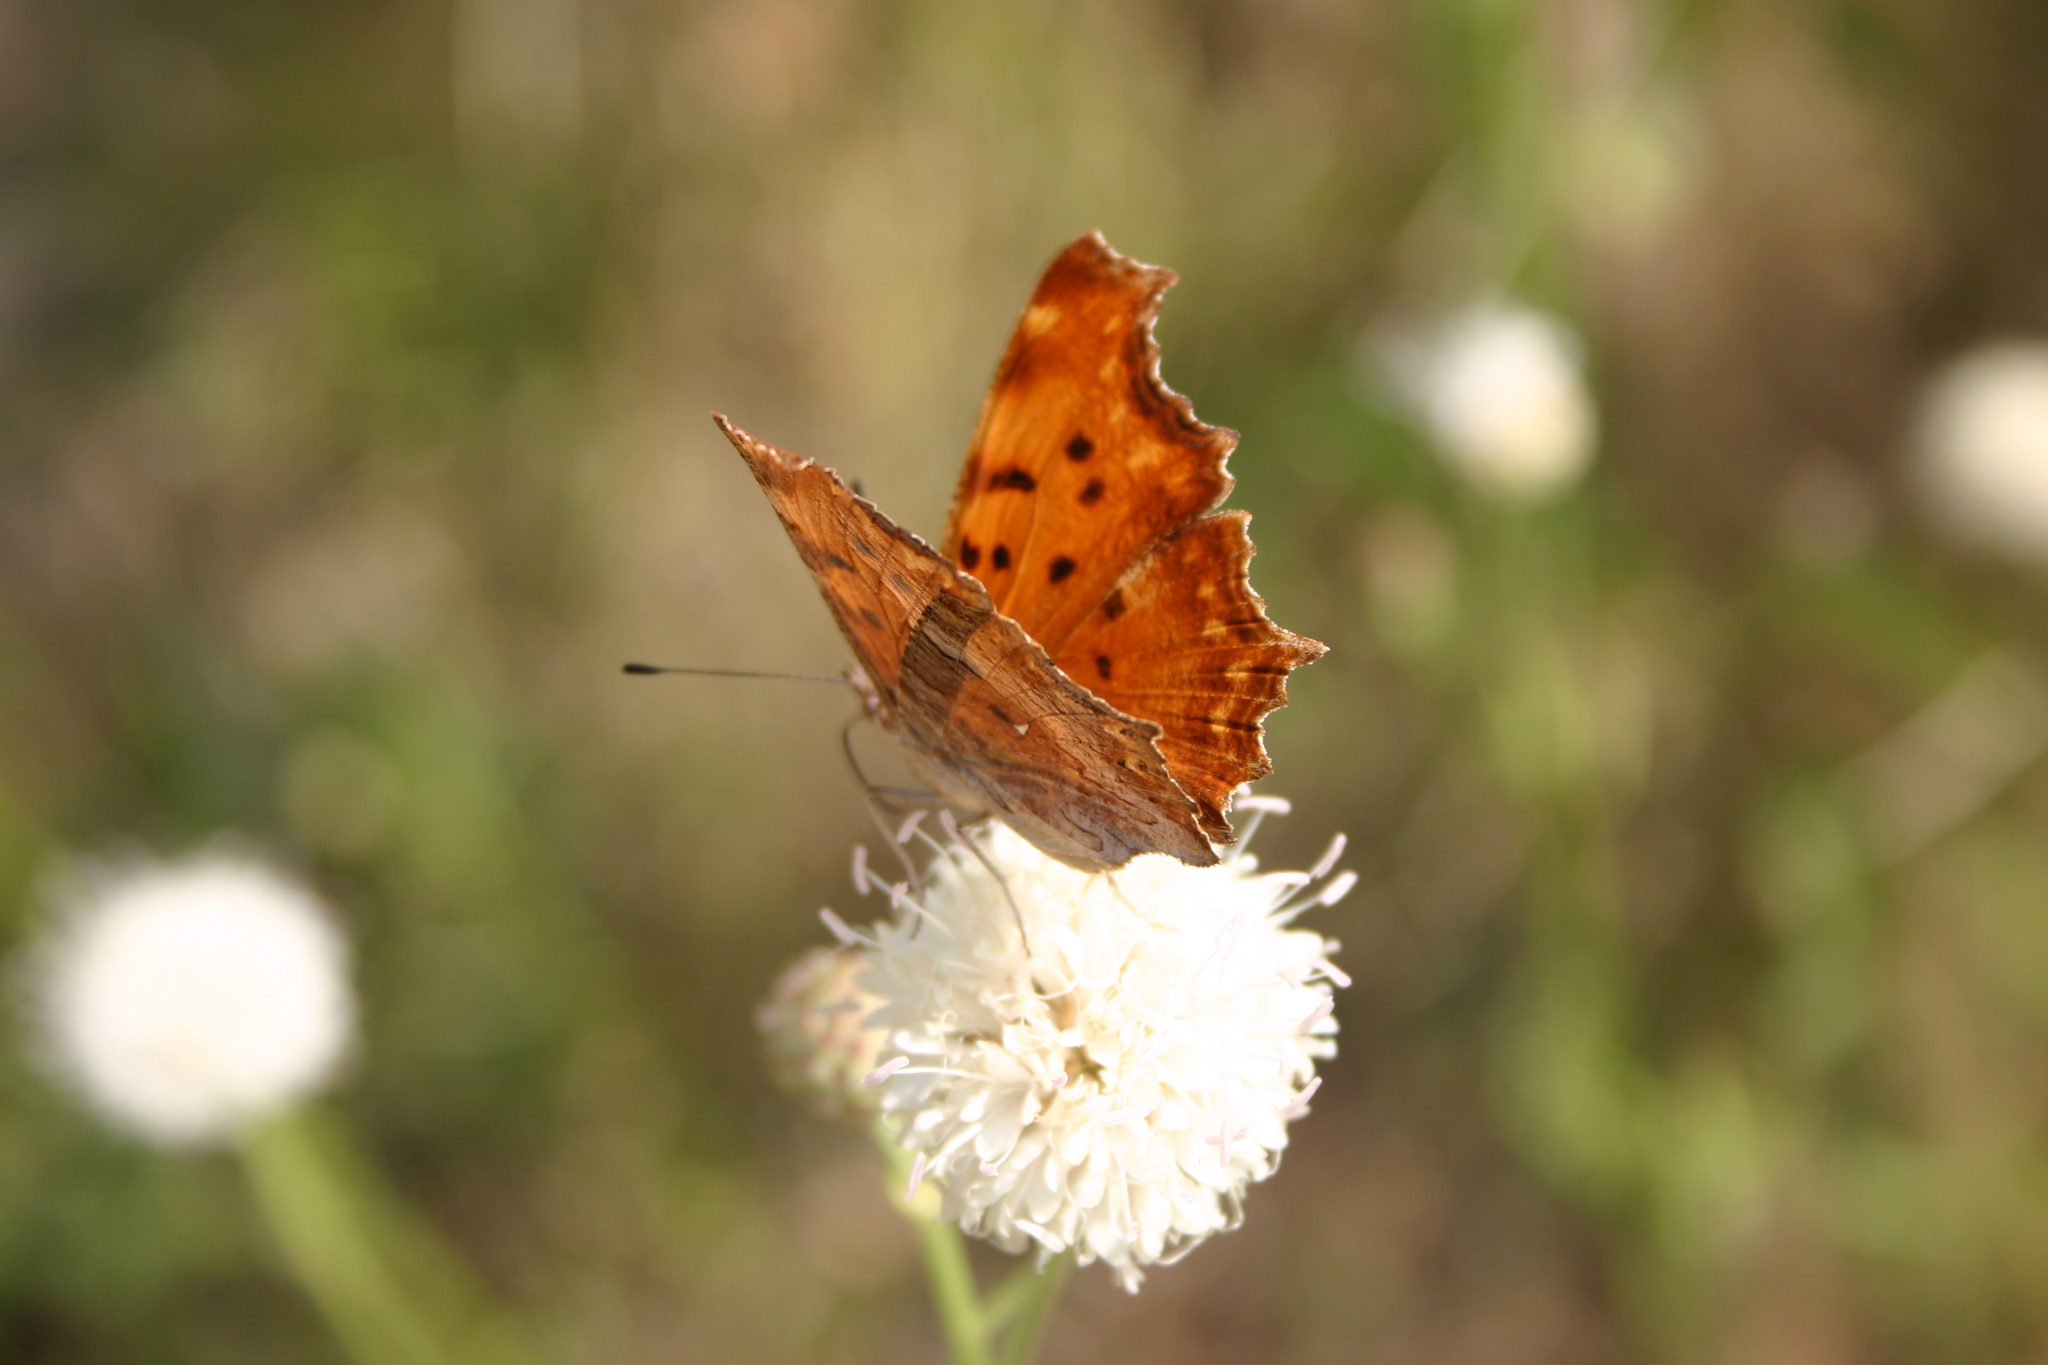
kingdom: Animalia
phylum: Arthropoda
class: Insecta
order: Lepidoptera
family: Nymphalidae
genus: Polygonia
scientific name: Polygonia egea
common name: Southern comma
